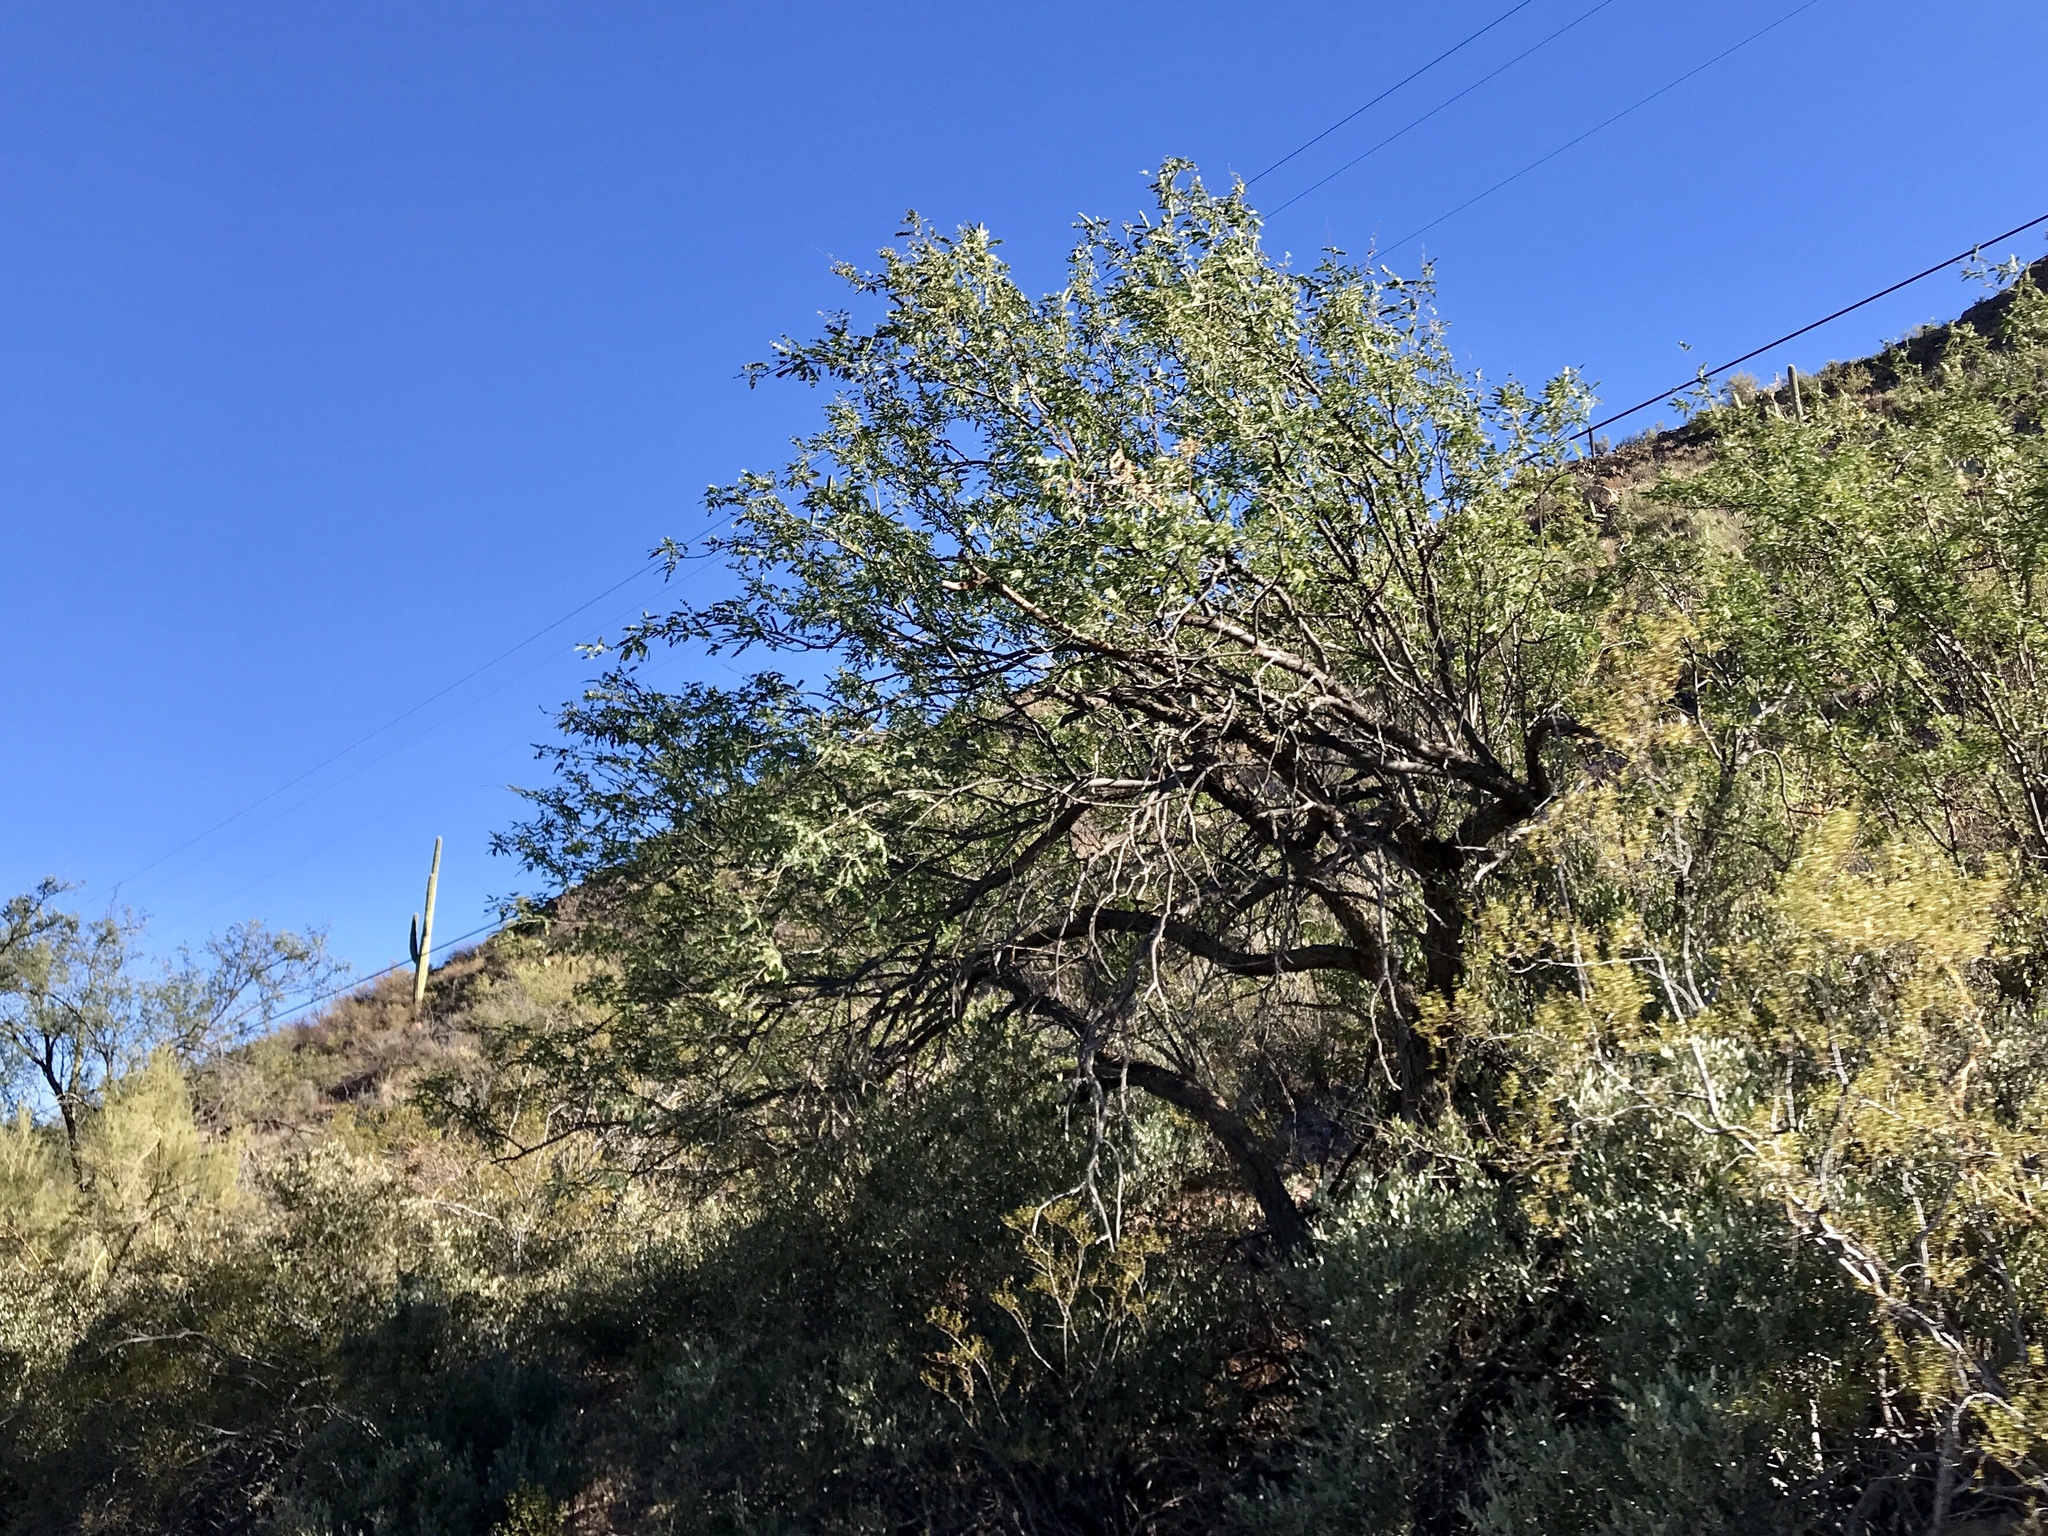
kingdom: Plantae
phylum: Tracheophyta
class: Magnoliopsida
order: Fabales
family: Fabaceae
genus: Olneya
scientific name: Olneya tesota
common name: Desert ironwood
